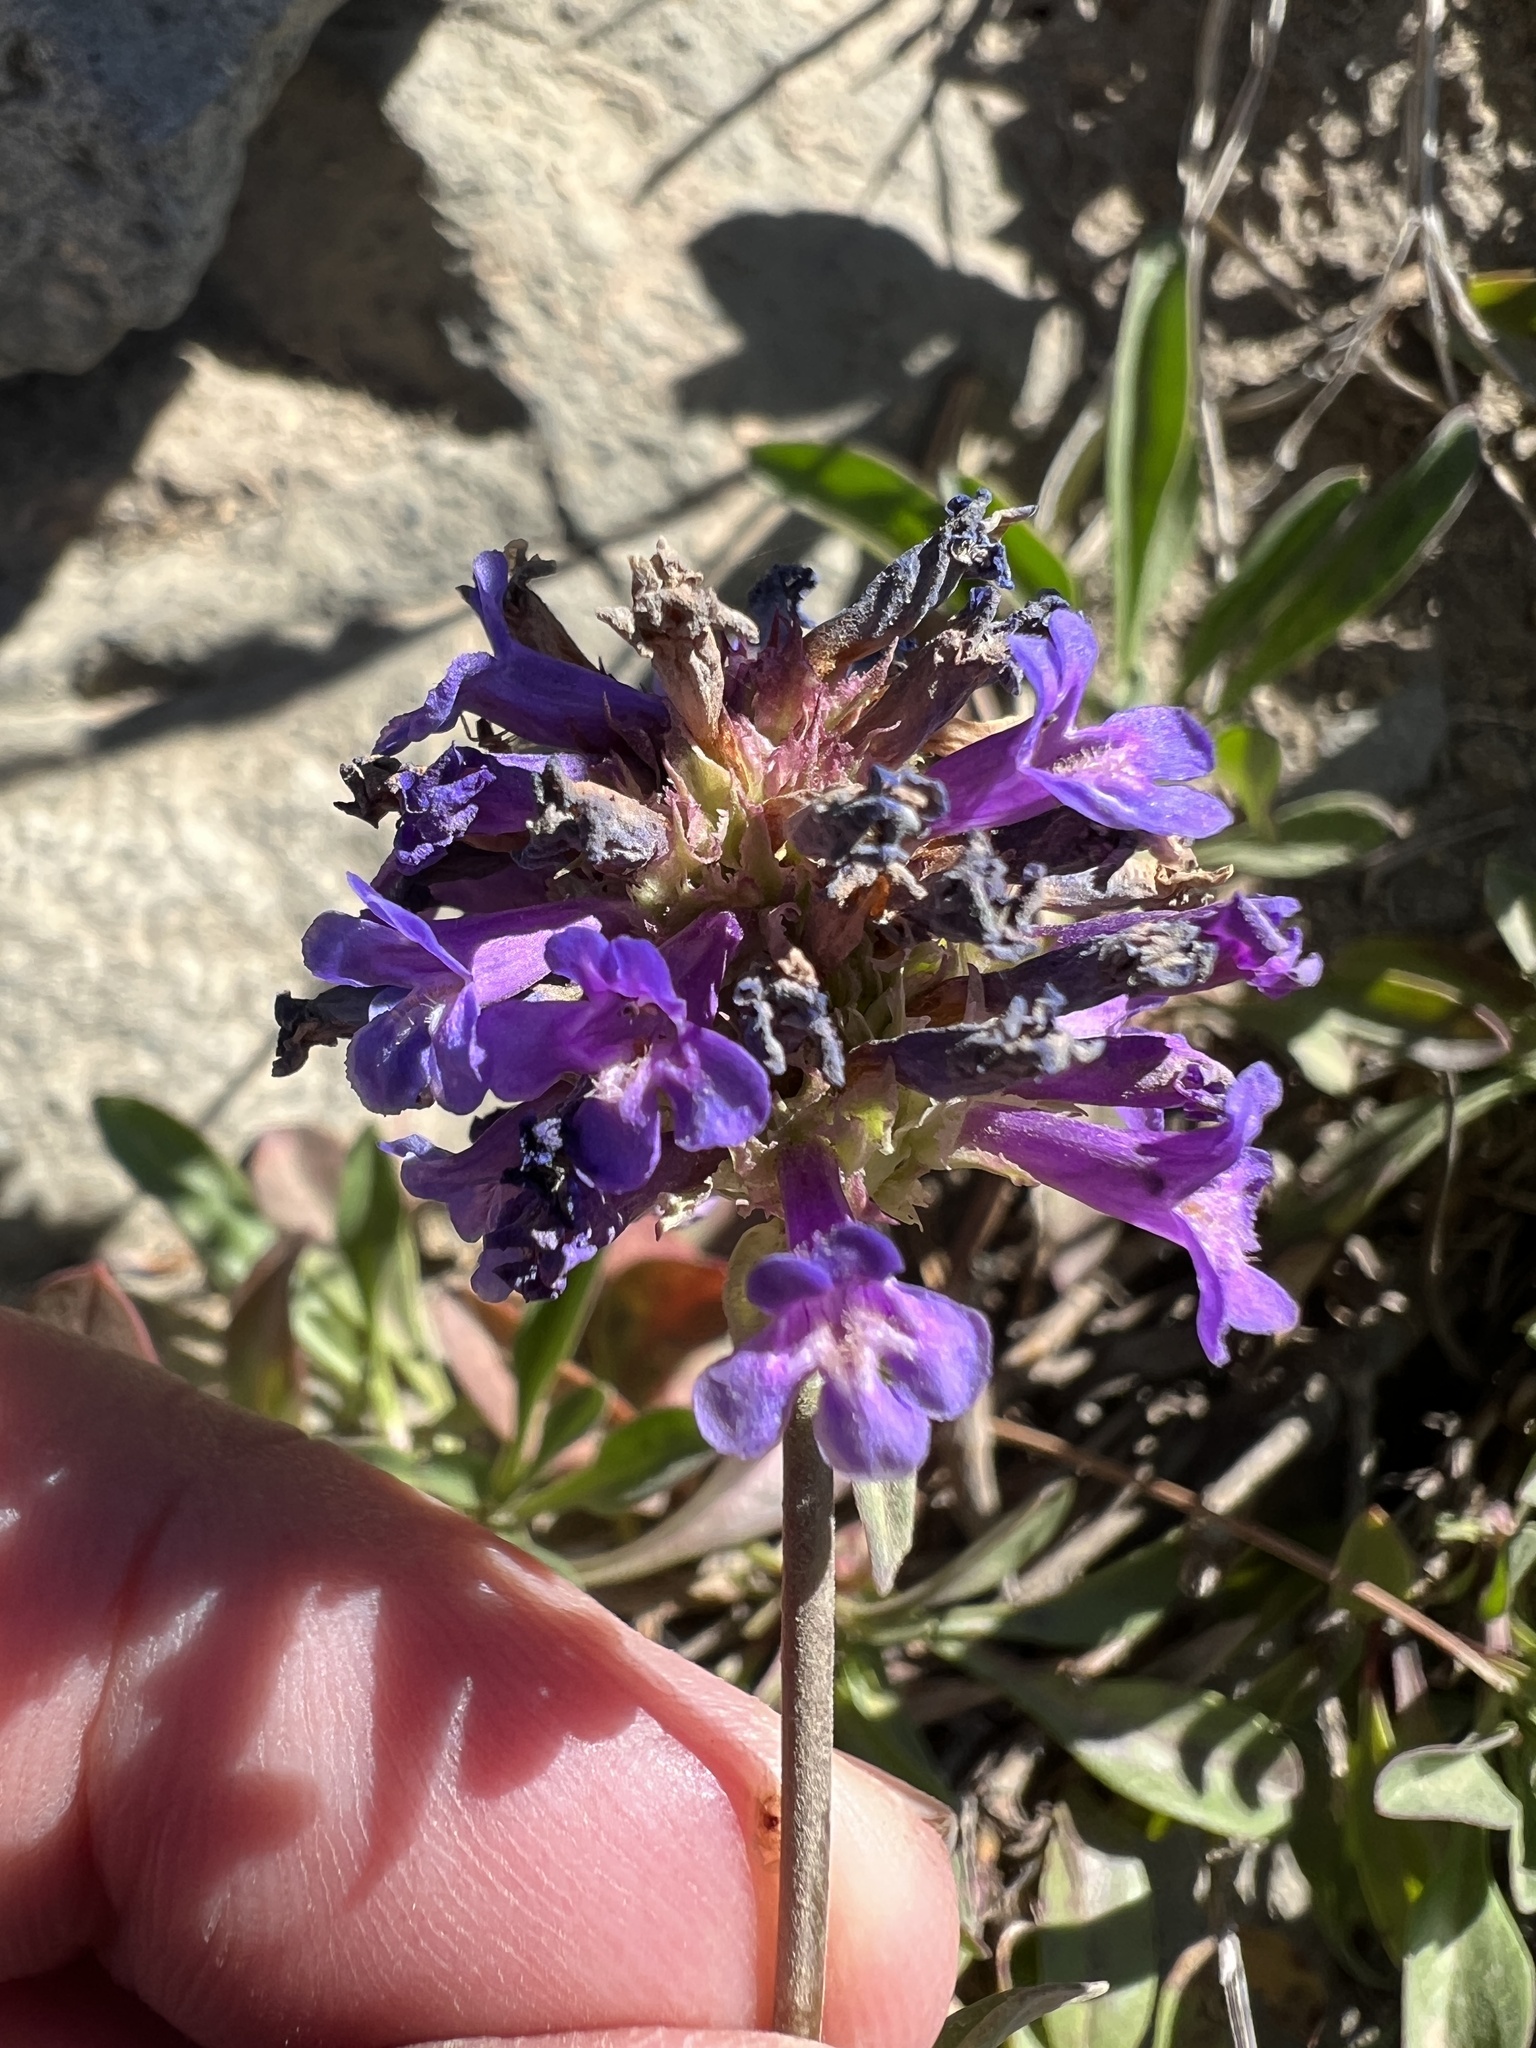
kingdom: Plantae
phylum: Tracheophyta
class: Magnoliopsida
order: Lamiales
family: Plantaginaceae
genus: Penstemon
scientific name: Penstemon procerus
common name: Small-flower penstemon
